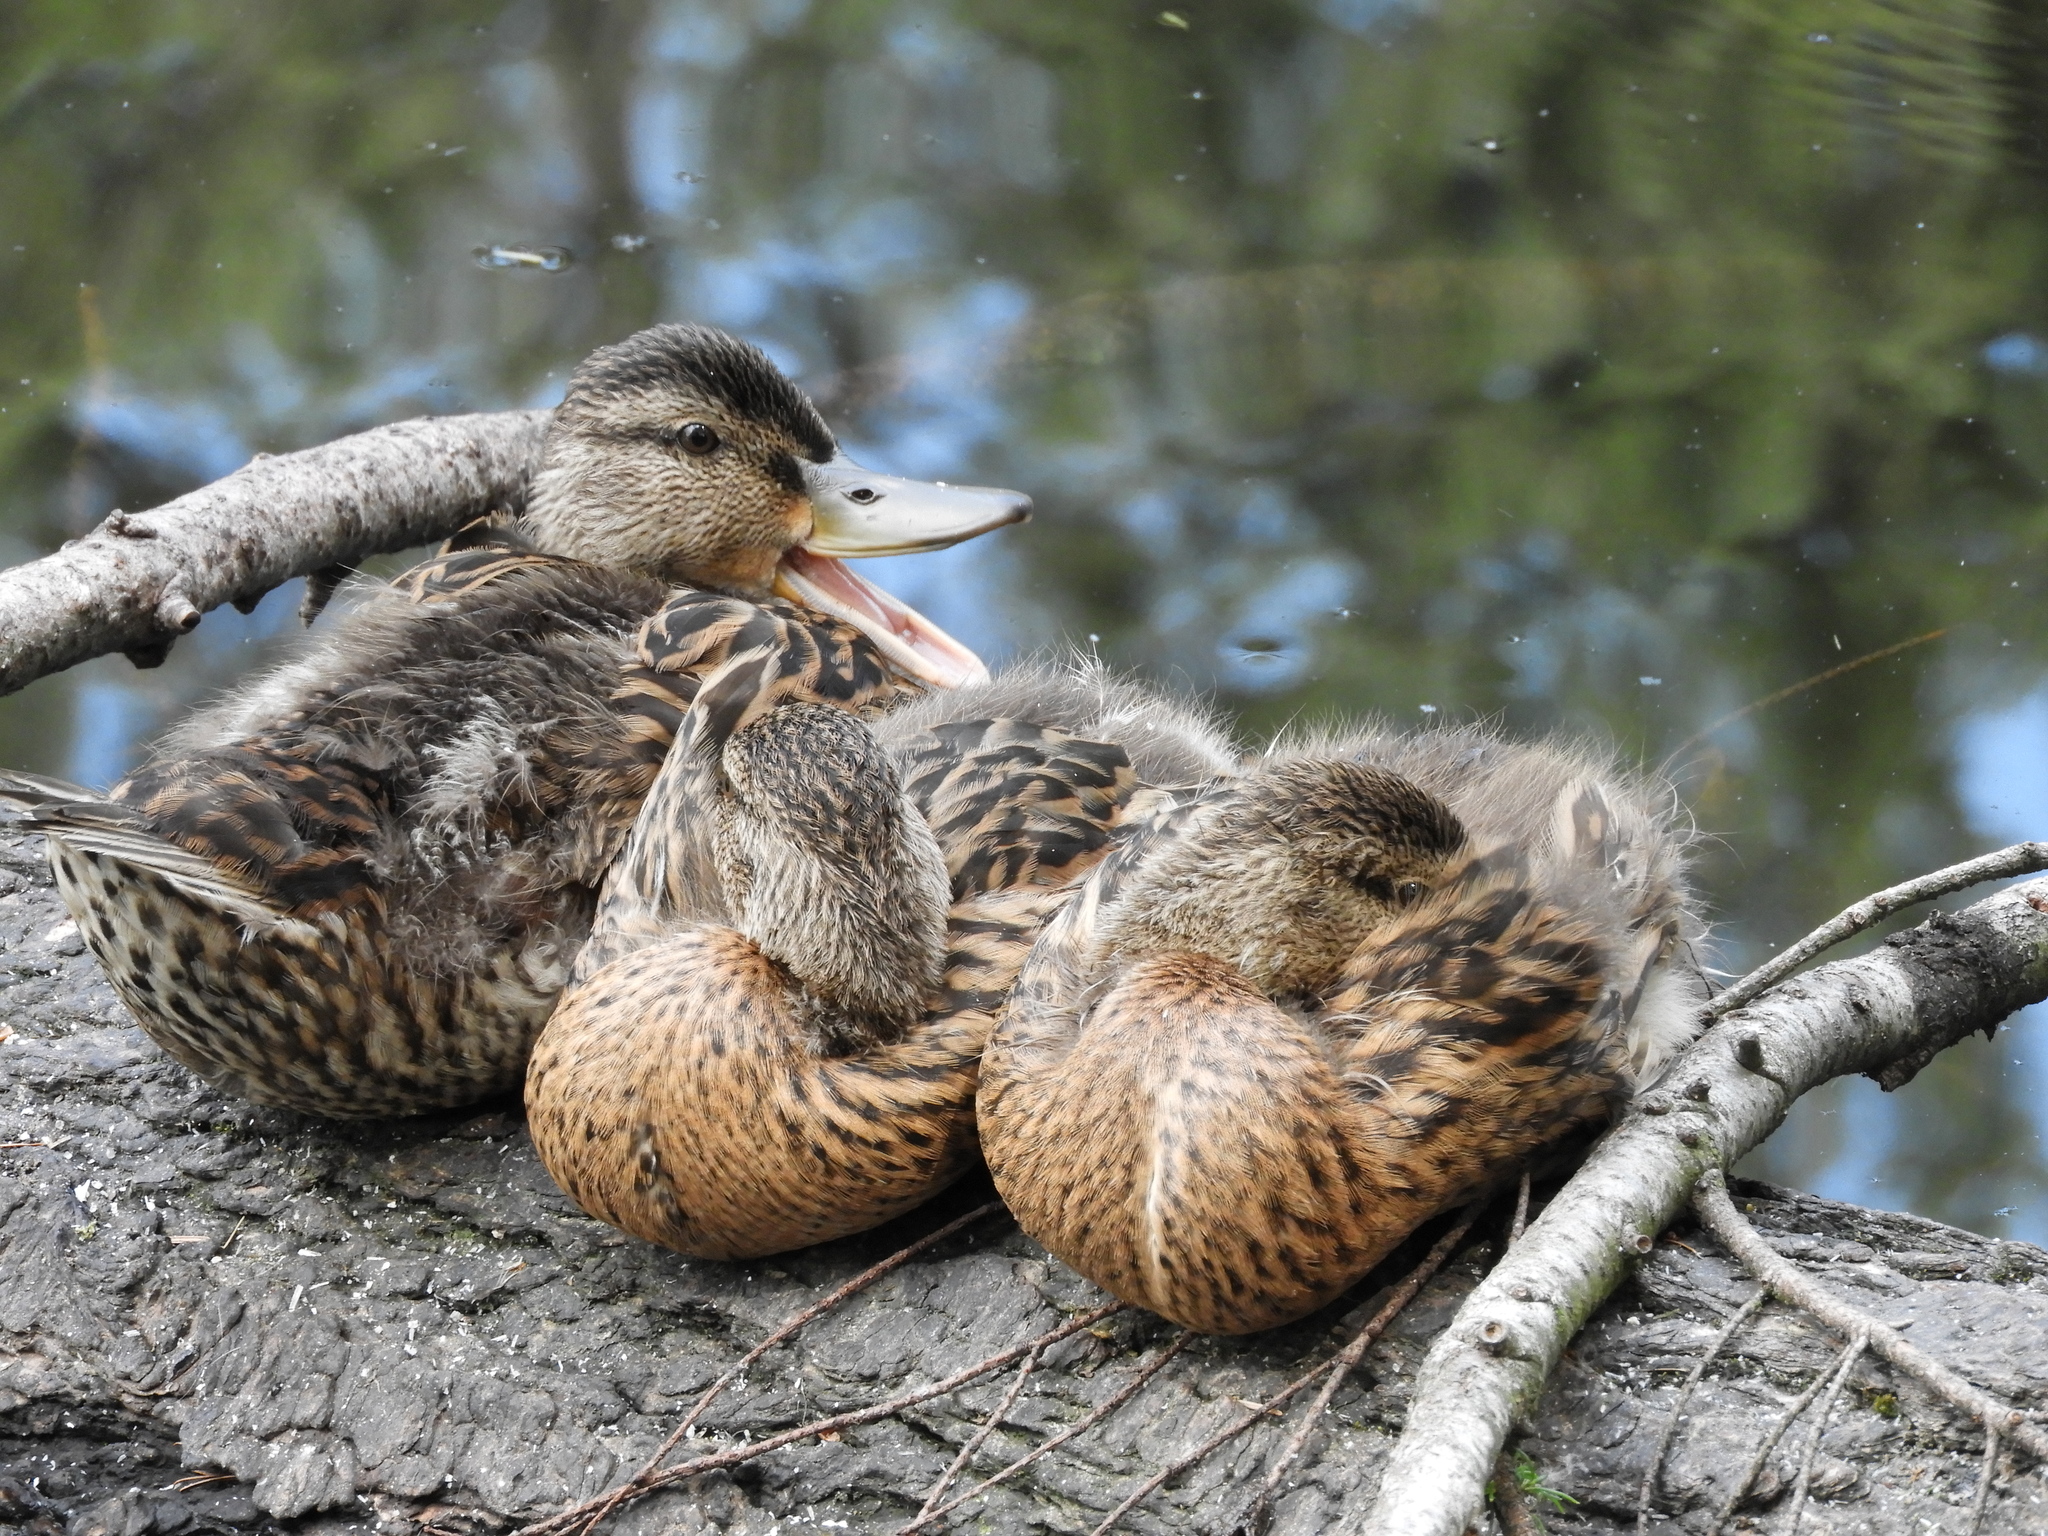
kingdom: Animalia
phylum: Chordata
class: Aves
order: Anseriformes
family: Anatidae
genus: Anas
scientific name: Anas platyrhynchos
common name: Mallard
